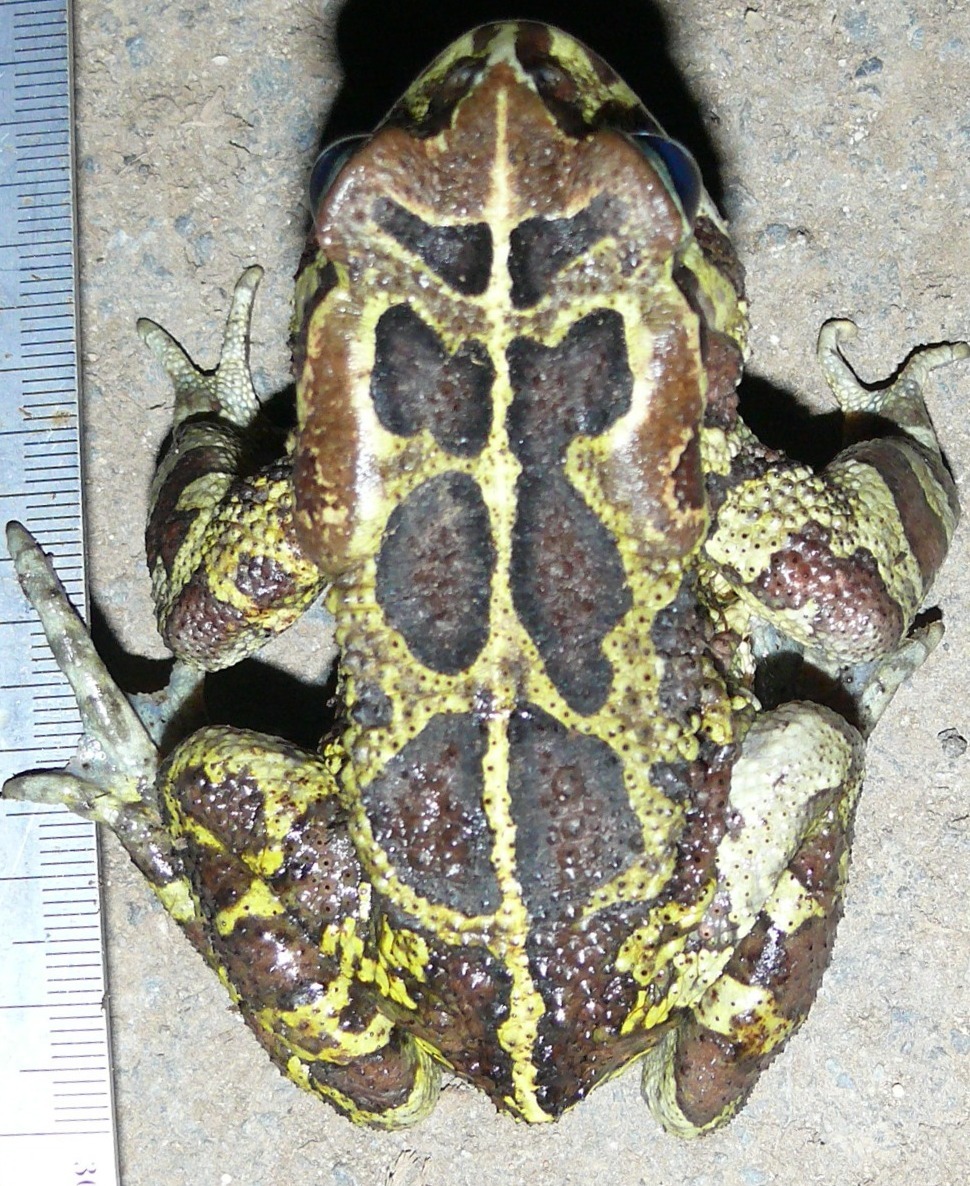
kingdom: Animalia
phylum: Chordata
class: Amphibia
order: Anura
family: Bufonidae
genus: Sclerophrys
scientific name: Sclerophrys pantherina
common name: Panther toad
